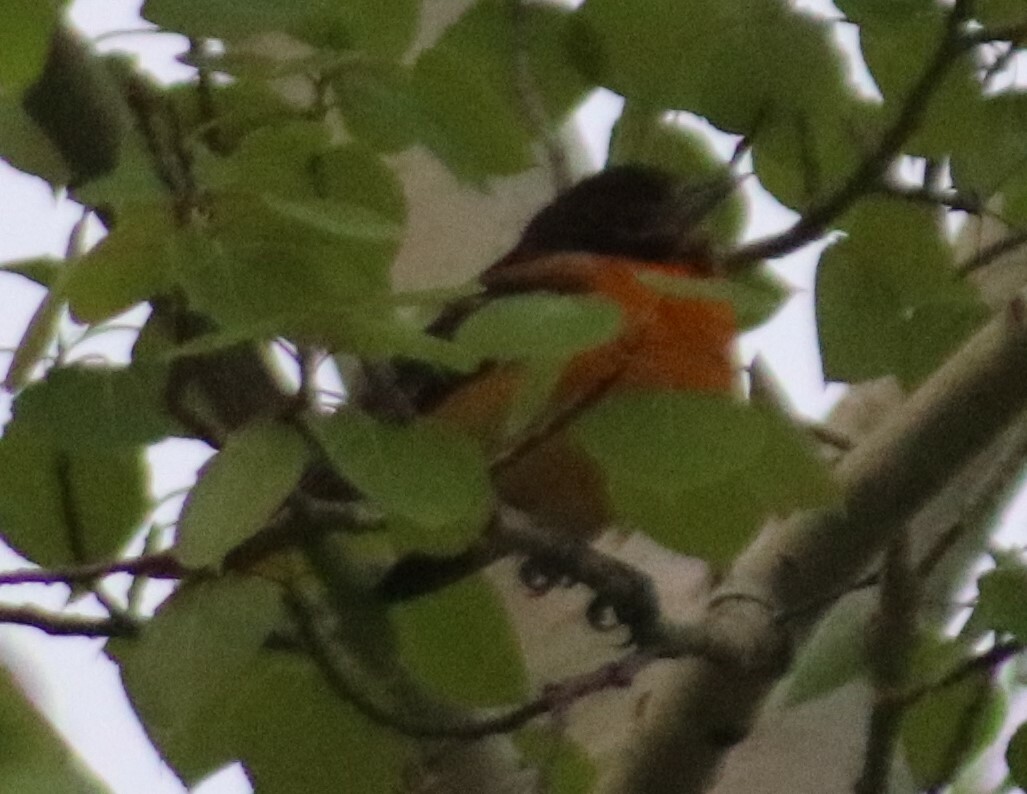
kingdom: Animalia
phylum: Chordata
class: Aves
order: Passeriformes
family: Icteridae
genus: Icterus
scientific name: Icterus galbula
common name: Baltimore oriole
